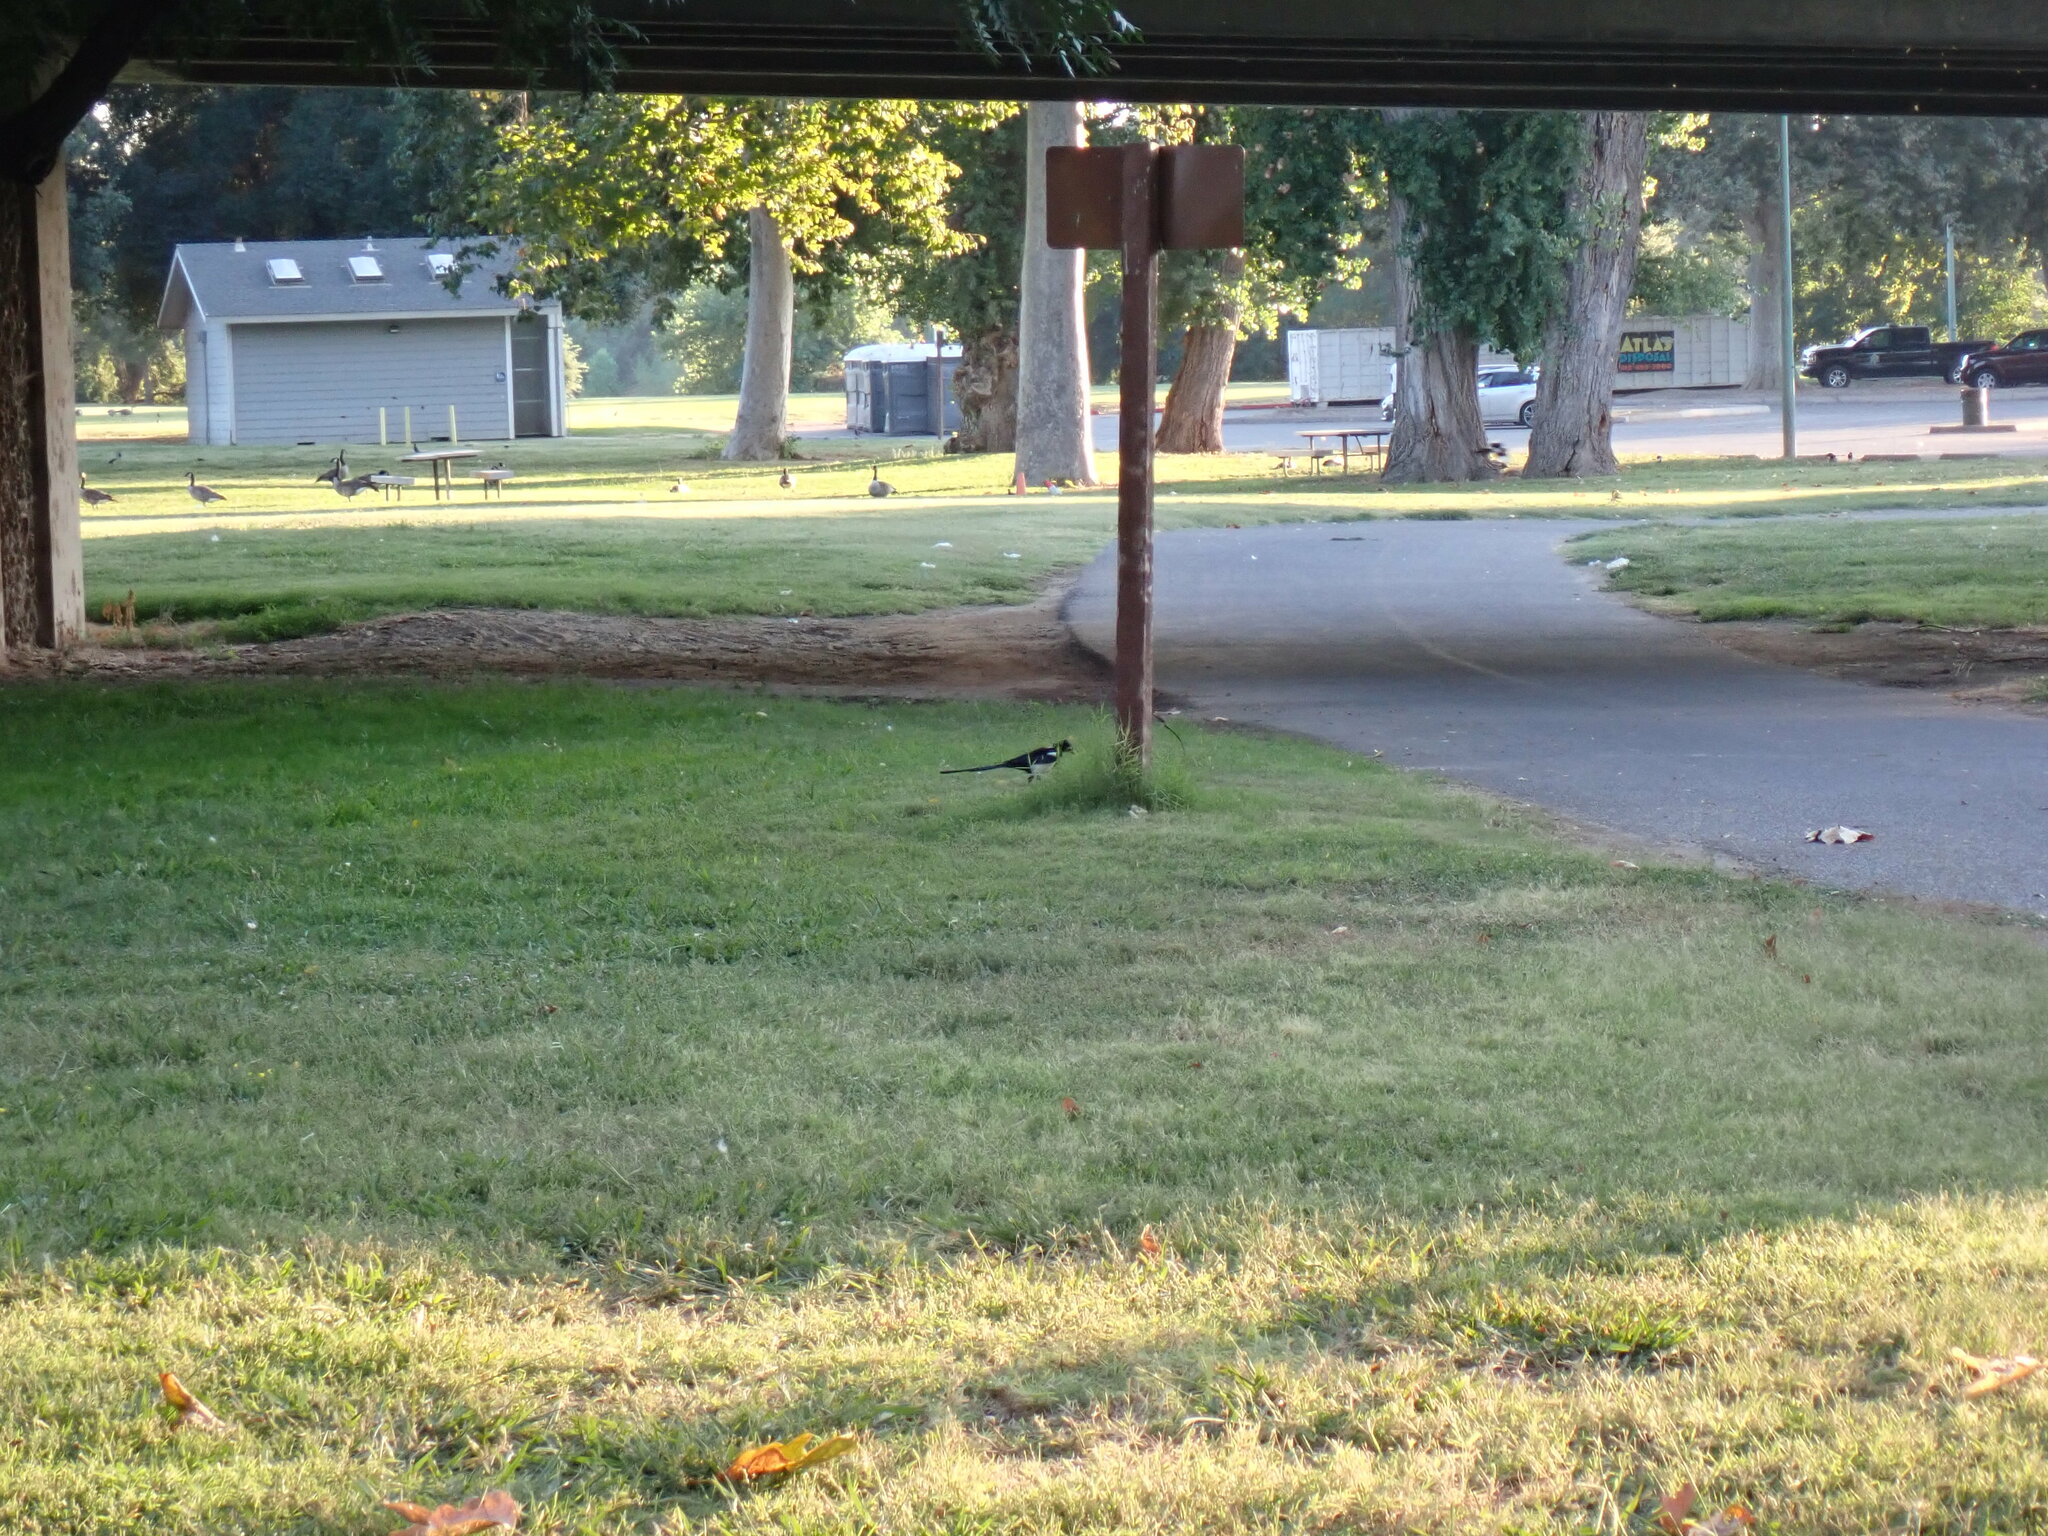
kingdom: Animalia
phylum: Chordata
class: Aves
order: Passeriformes
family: Corvidae
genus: Pica
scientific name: Pica nuttalli
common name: Yellow-billed magpie
